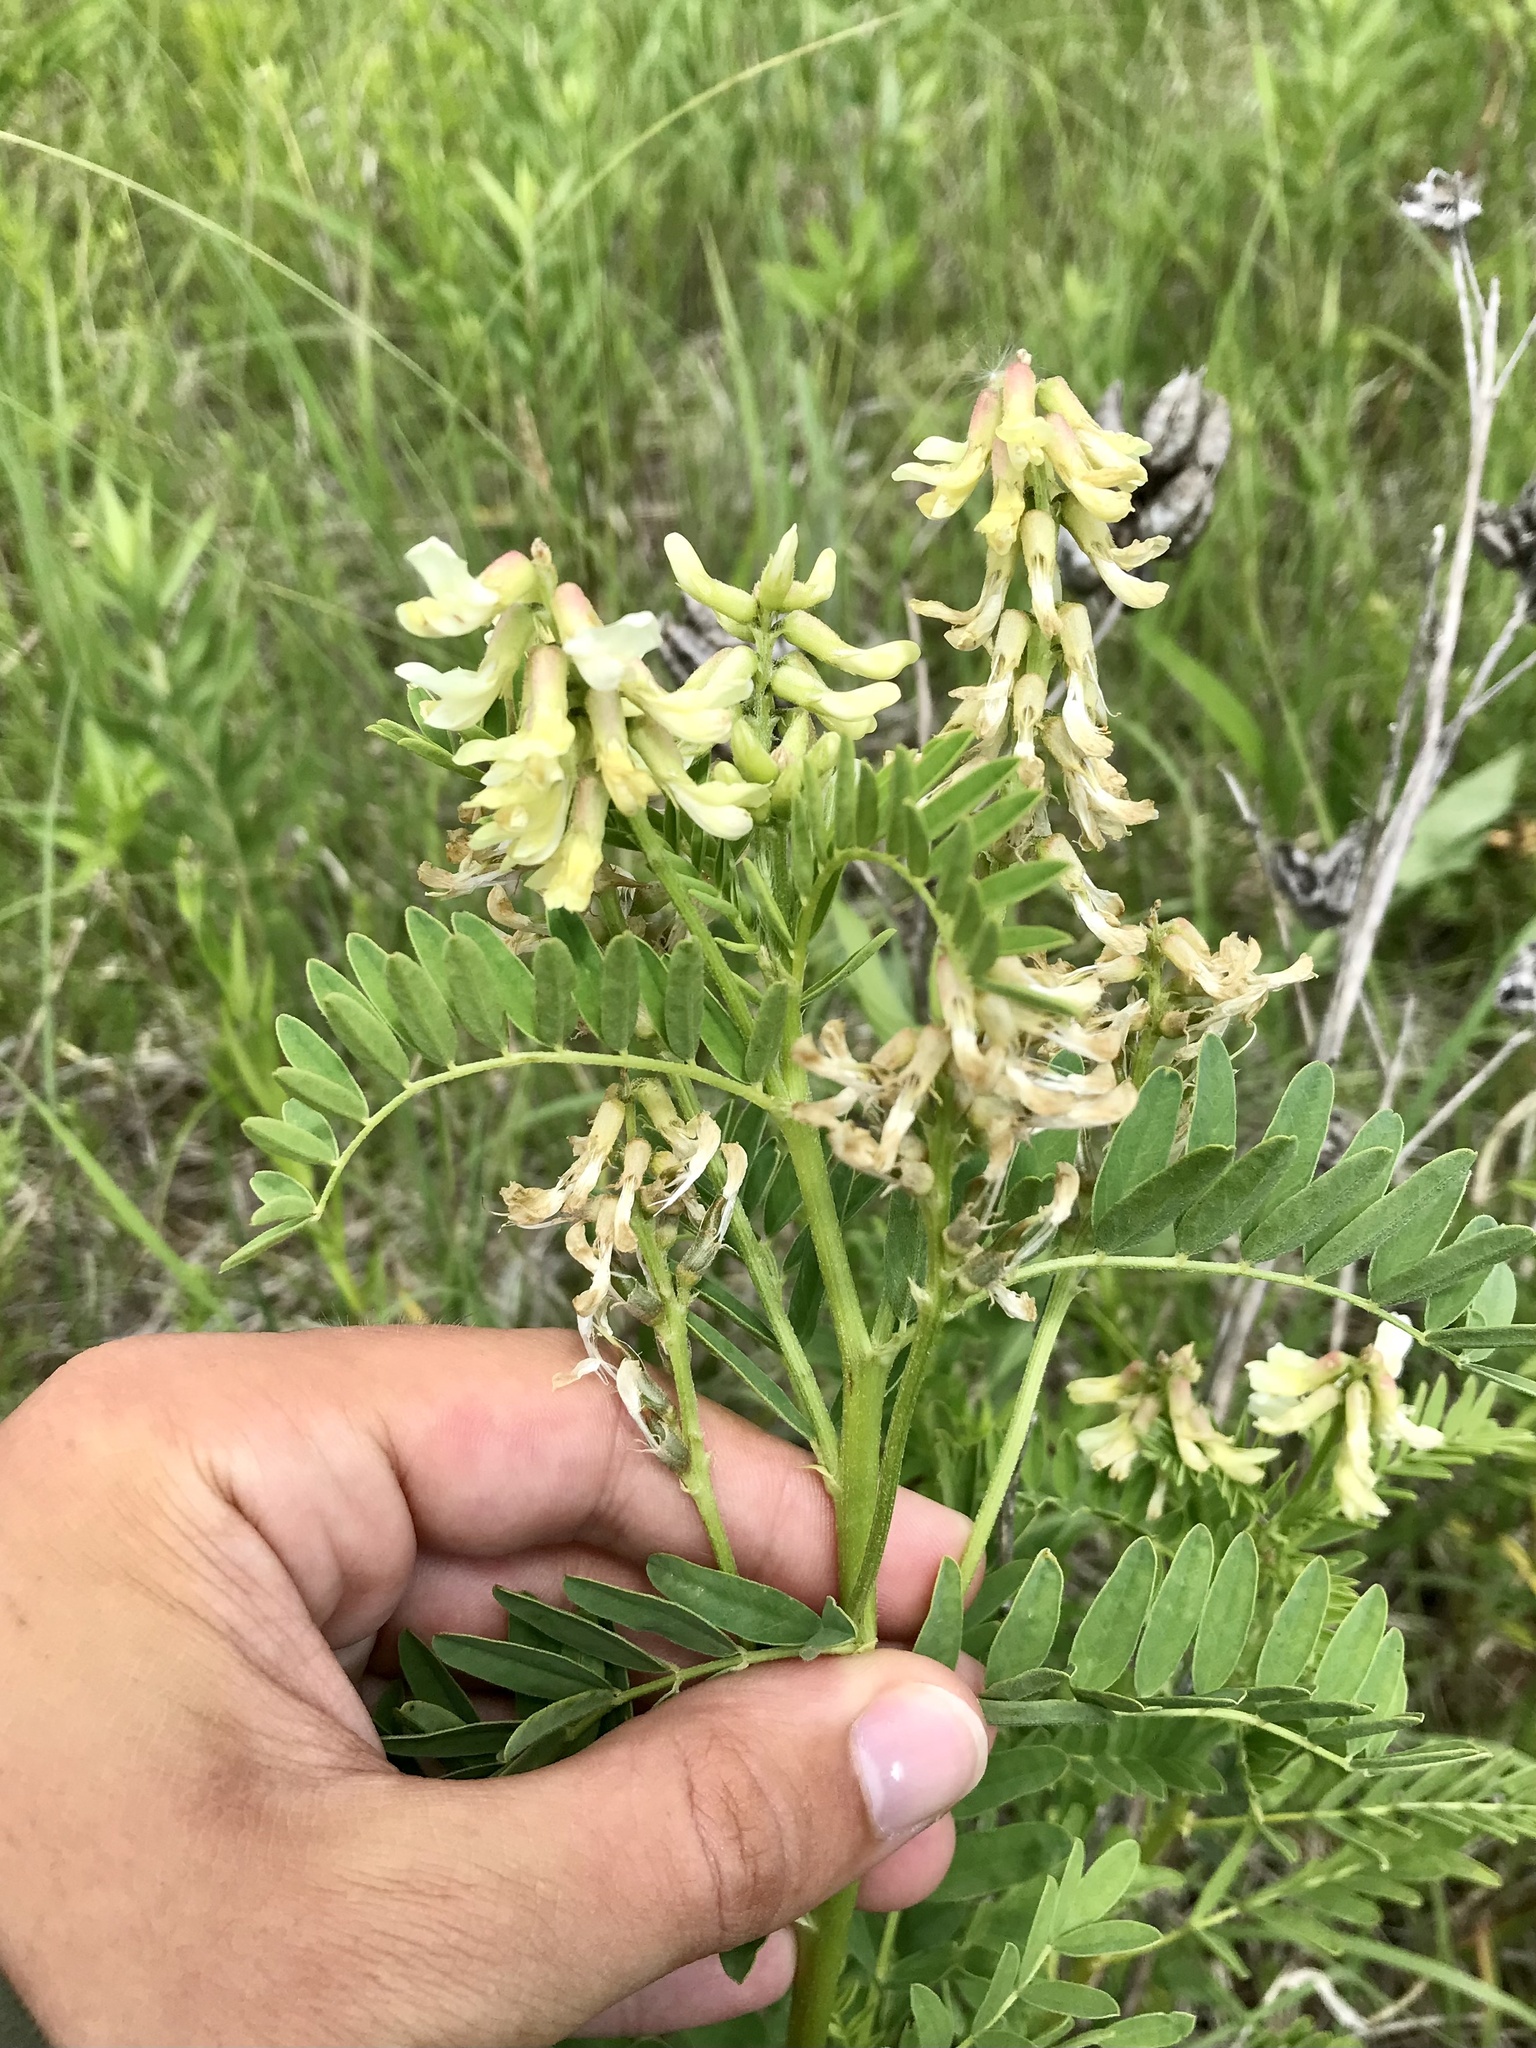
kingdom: Plantae
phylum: Tracheophyta
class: Magnoliopsida
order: Fabales
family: Fabaceae
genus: Astragalus
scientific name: Astragalus neglectus
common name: Cooper's milk-vetch
